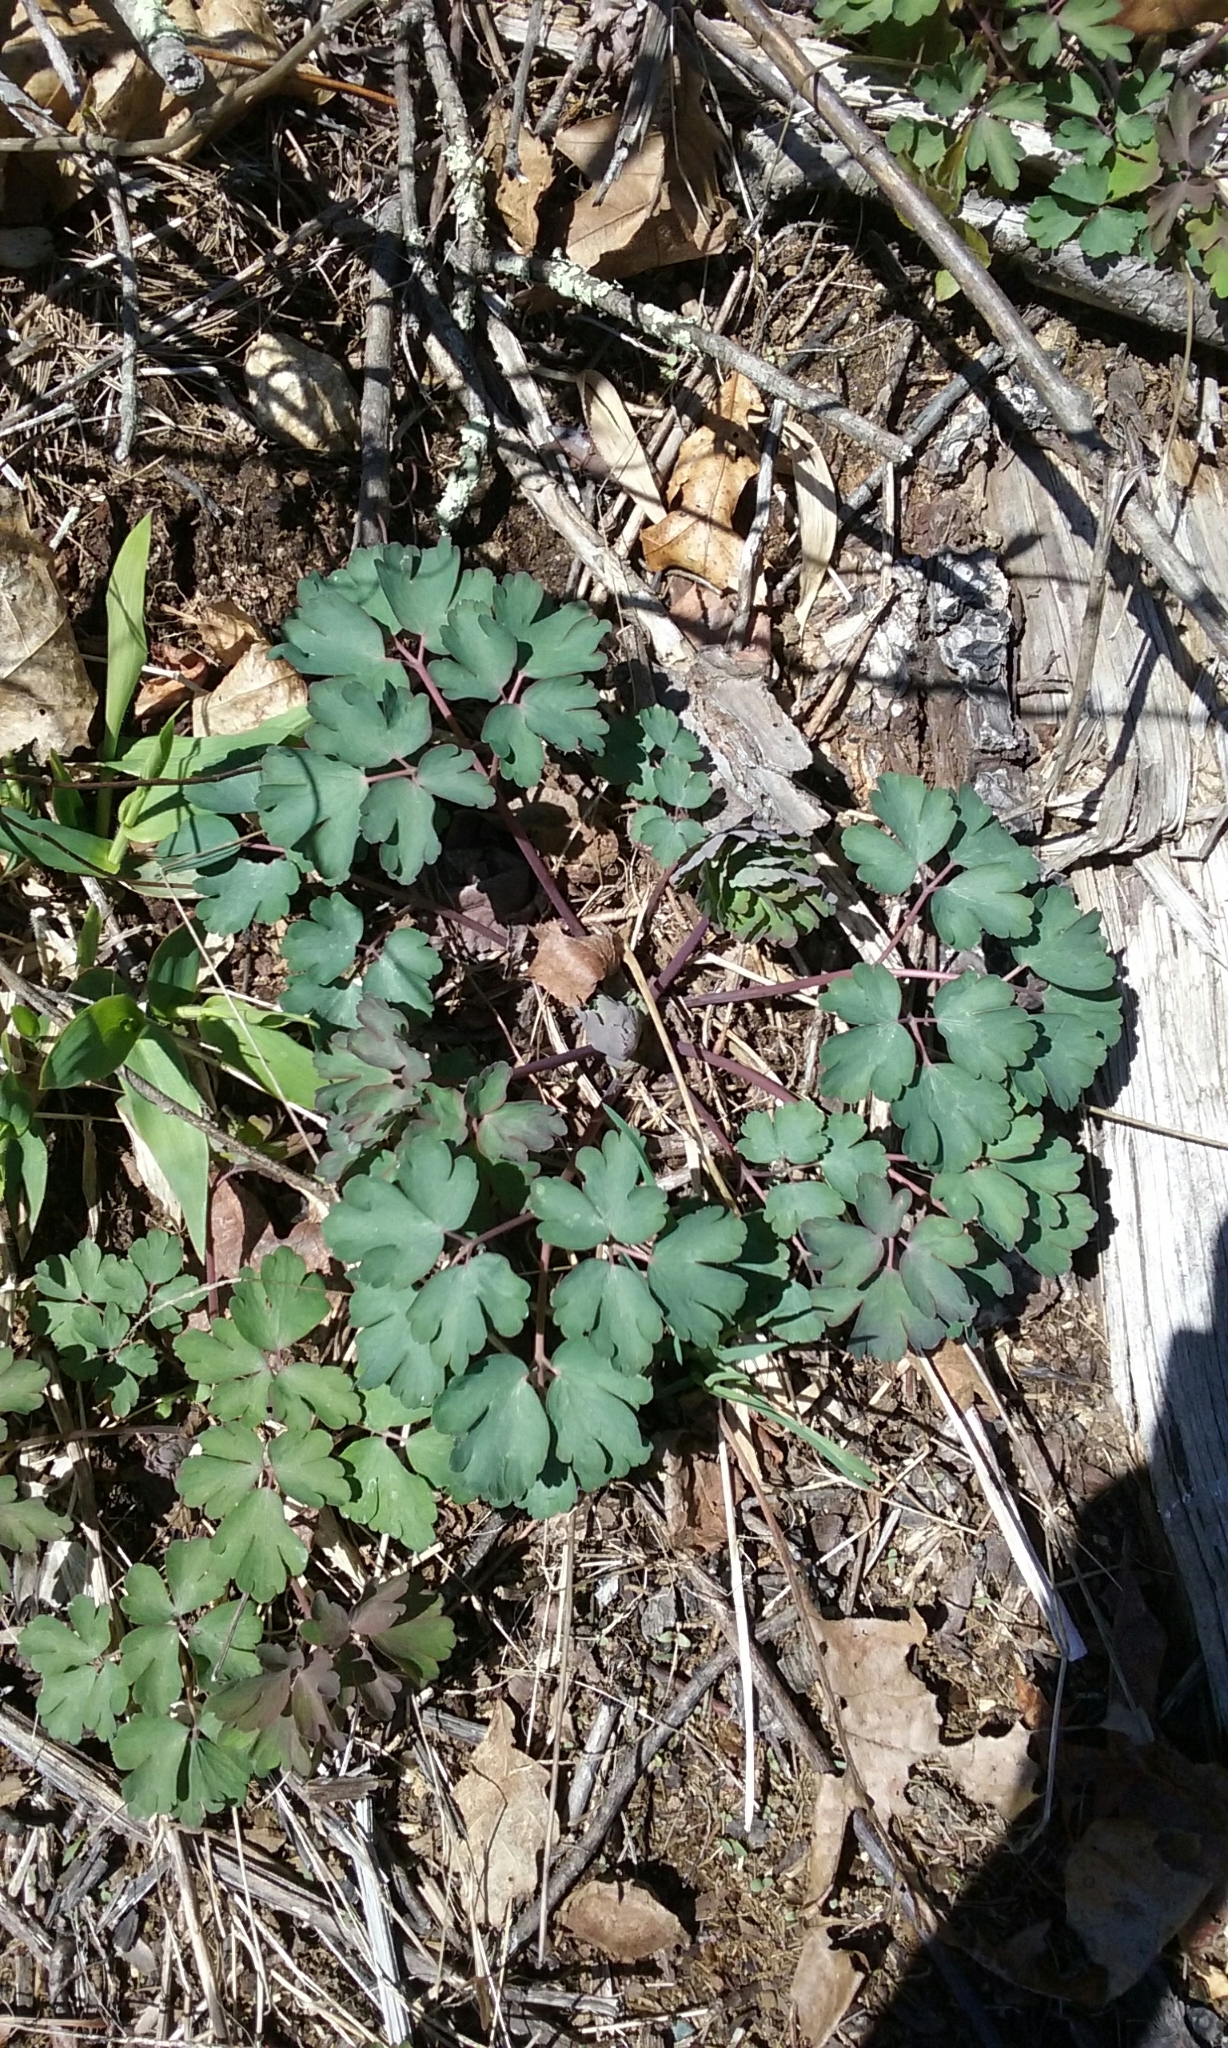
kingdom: Plantae
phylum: Tracheophyta
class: Magnoliopsida
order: Ranunculales
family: Ranunculaceae
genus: Aquilegia
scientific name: Aquilegia
